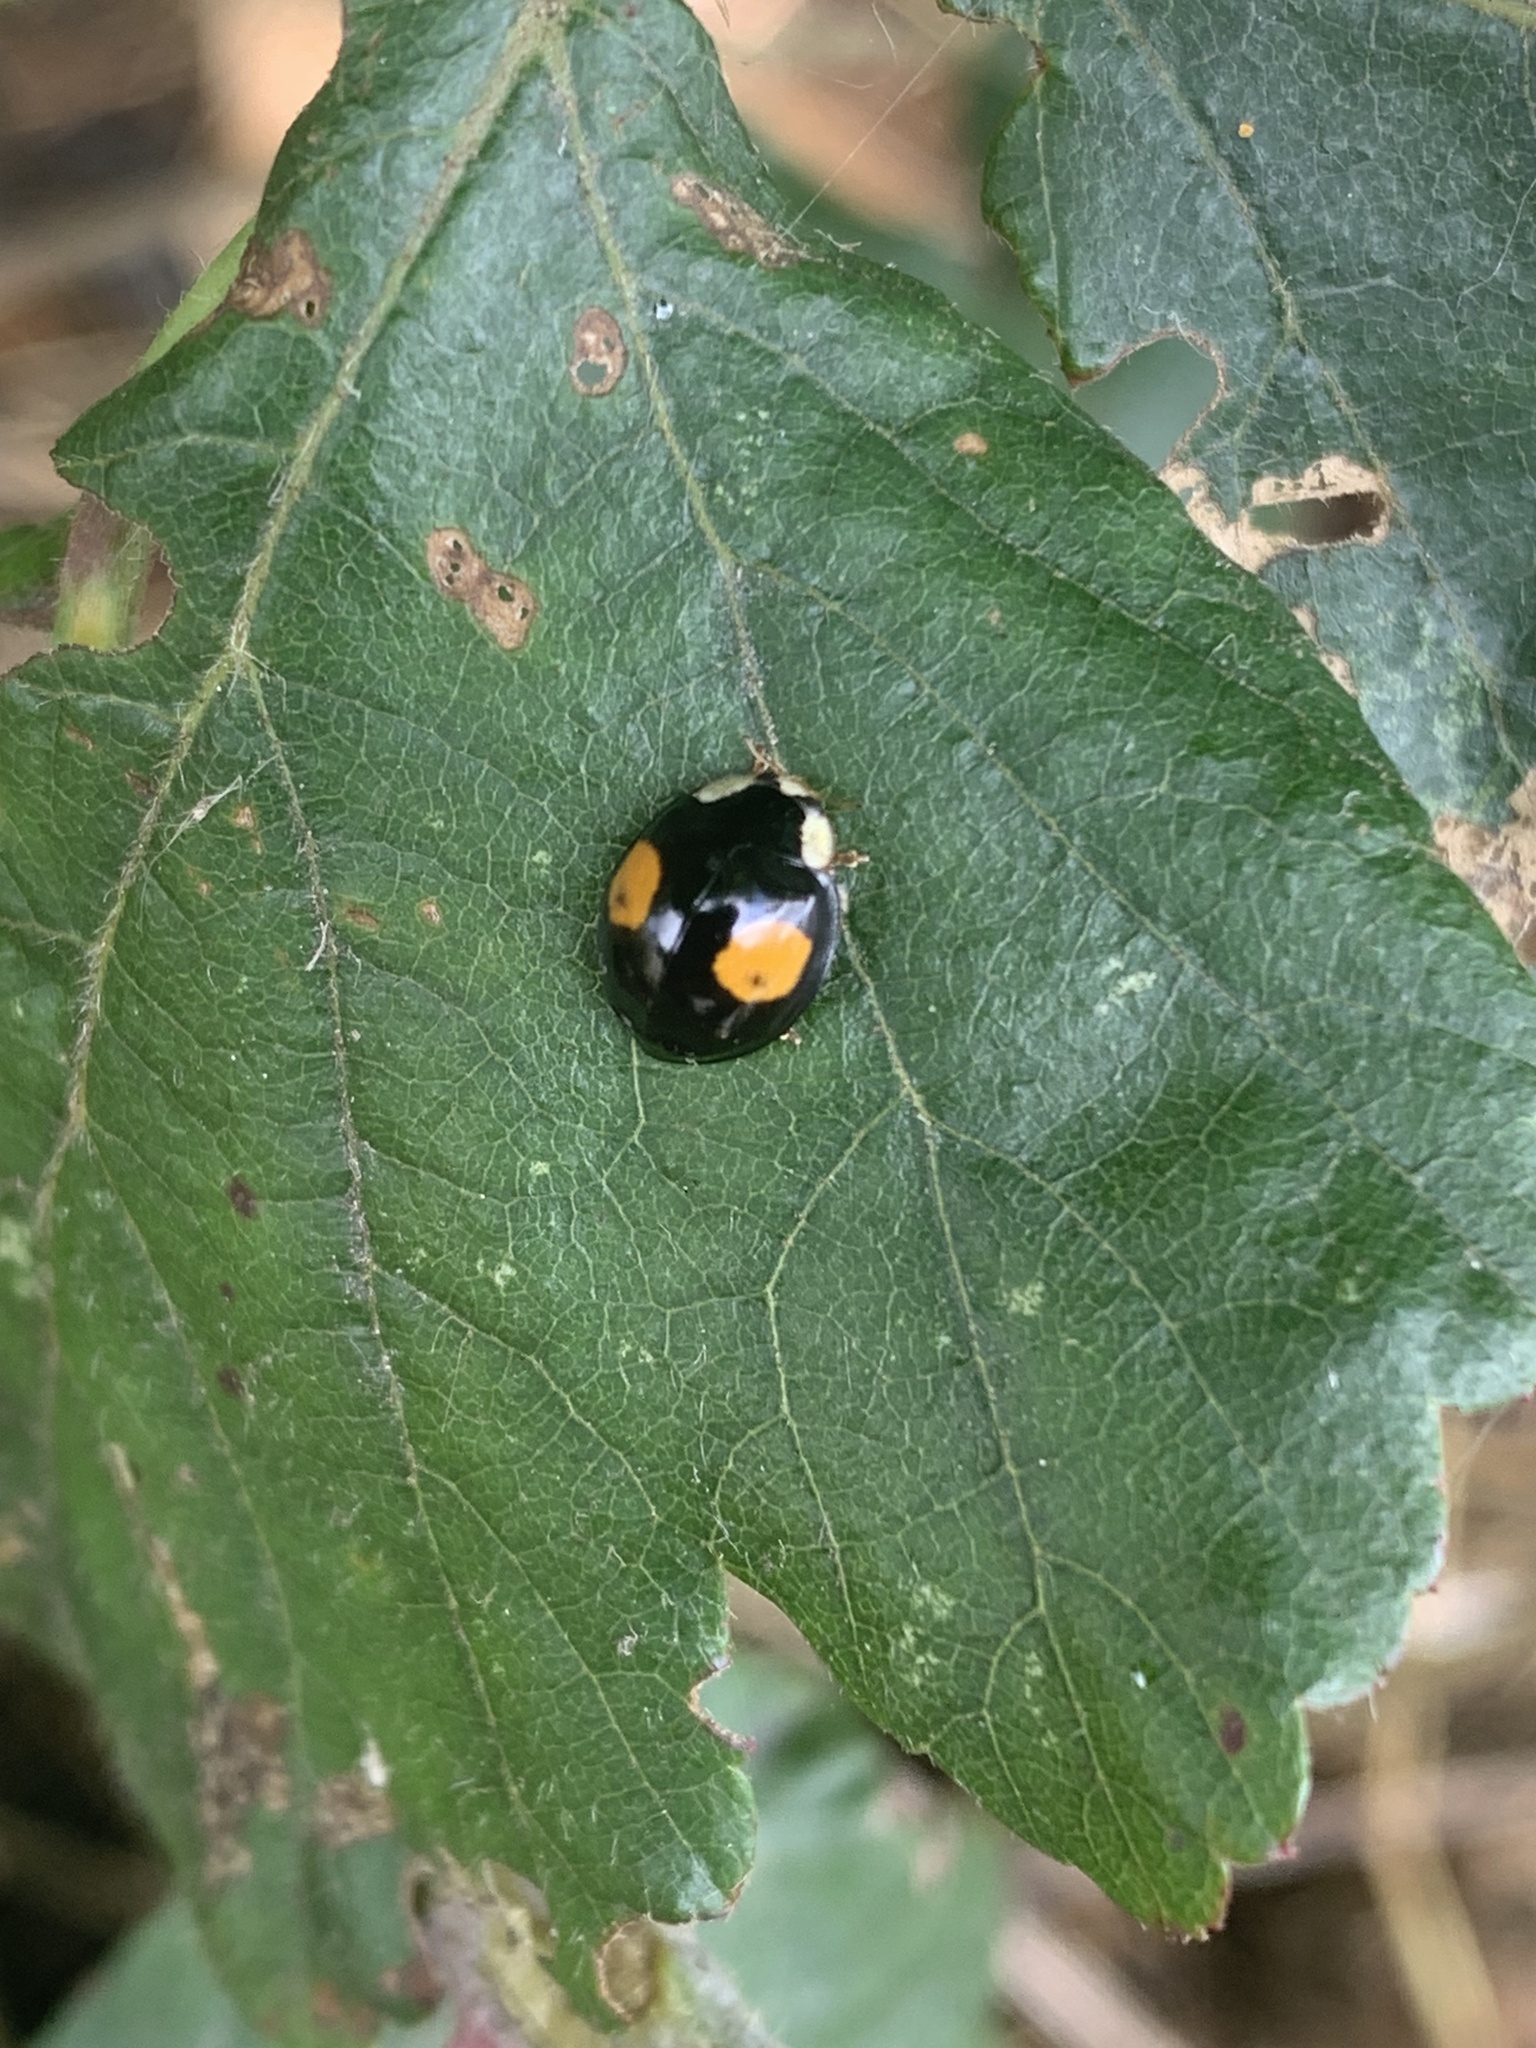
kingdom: Animalia
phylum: Arthropoda
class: Insecta
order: Coleoptera
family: Coccinellidae
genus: Harmonia
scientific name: Harmonia axyridis
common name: Harlequin ladybird
